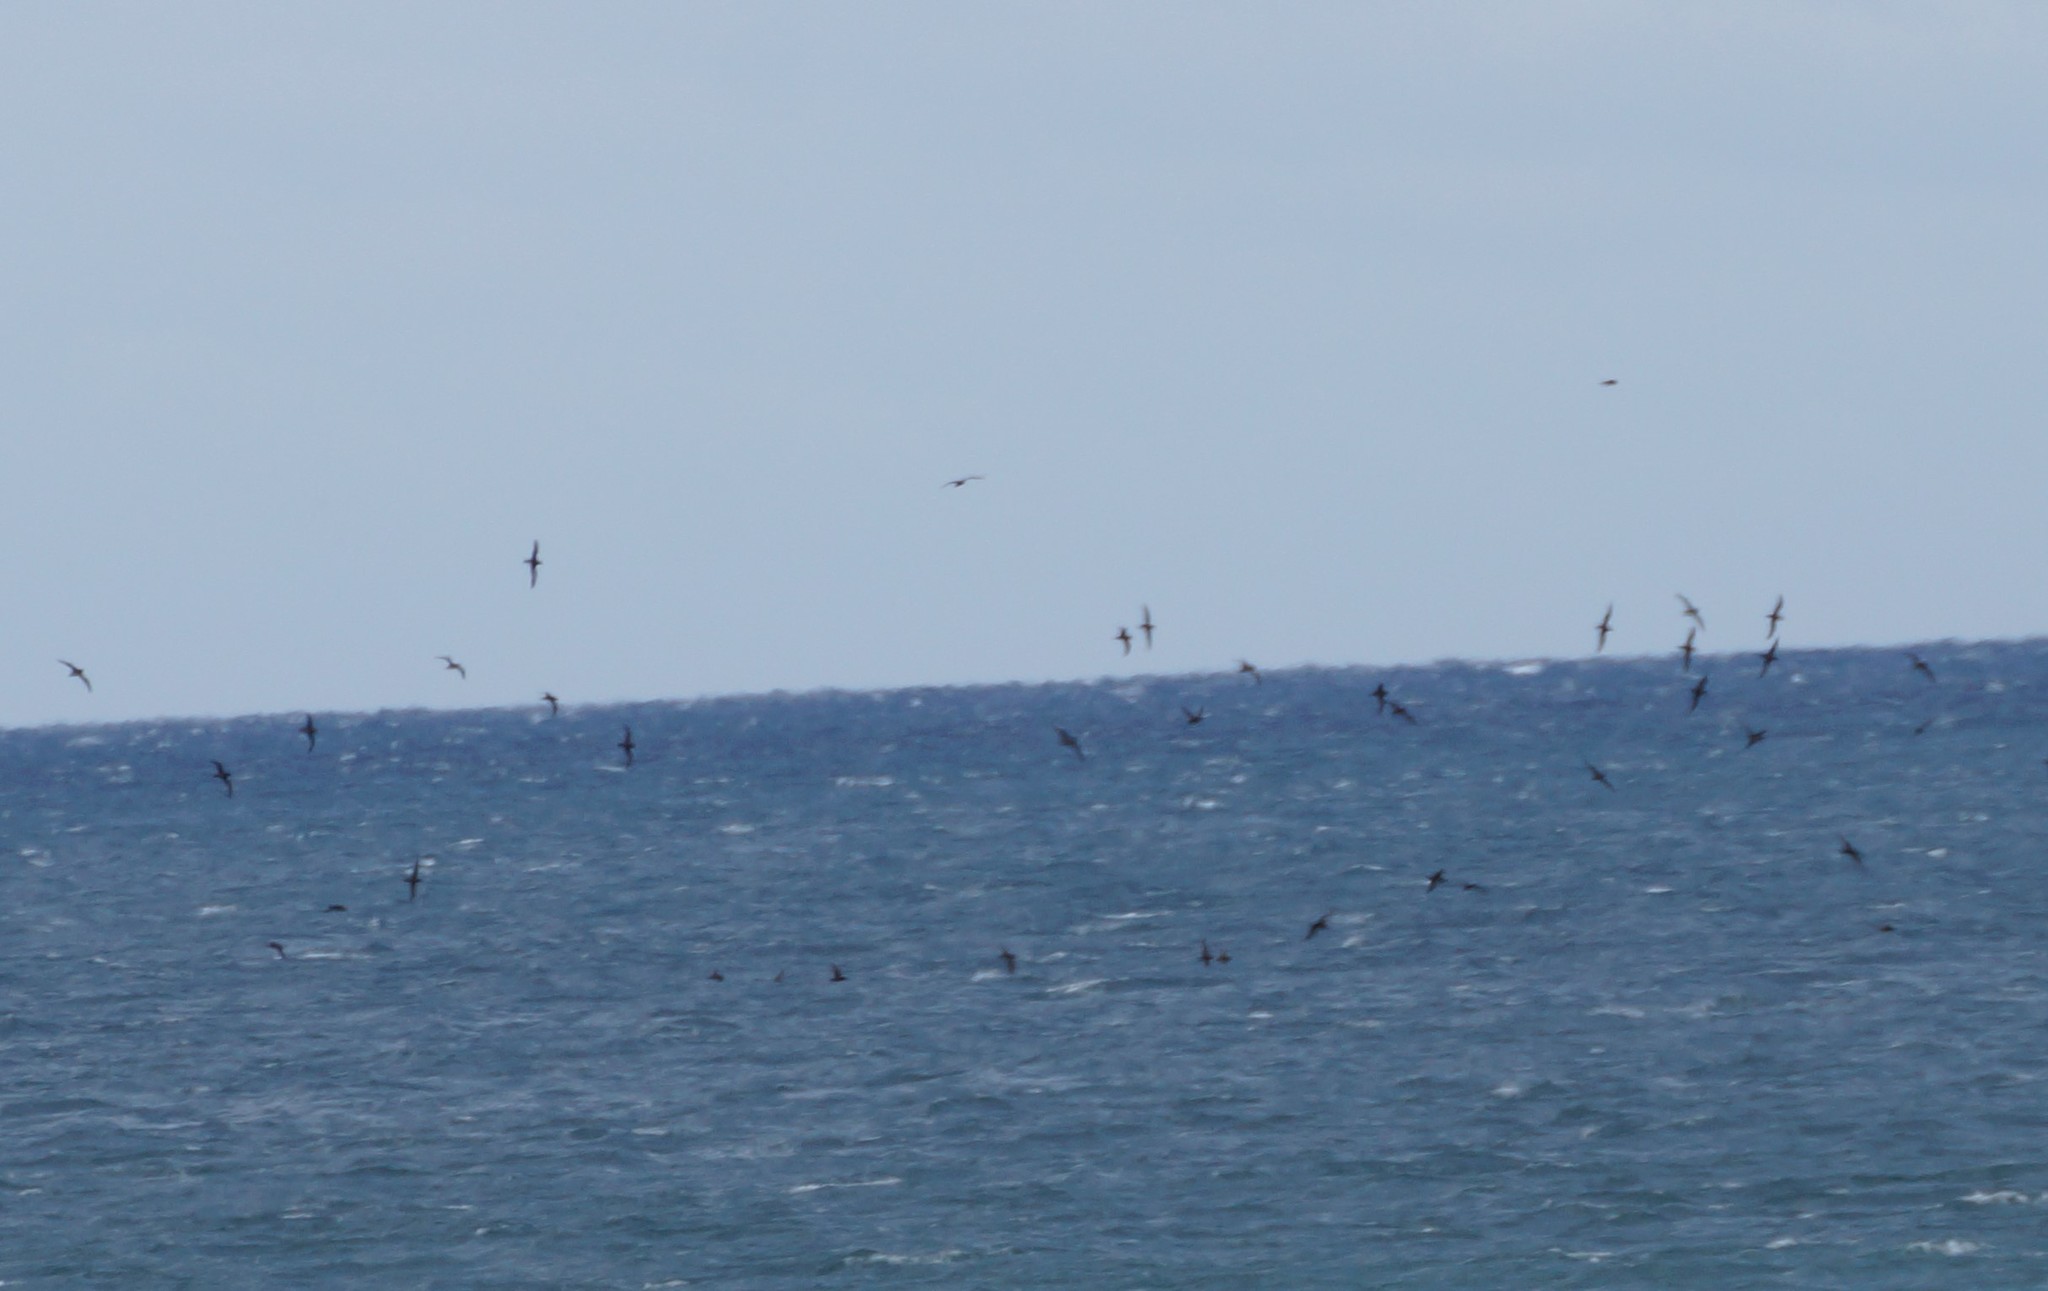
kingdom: Animalia
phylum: Chordata
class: Aves
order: Procellariiformes
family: Procellariidae
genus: Puffinus
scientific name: Puffinus tenuirostris
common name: Short-tailed shearwater
